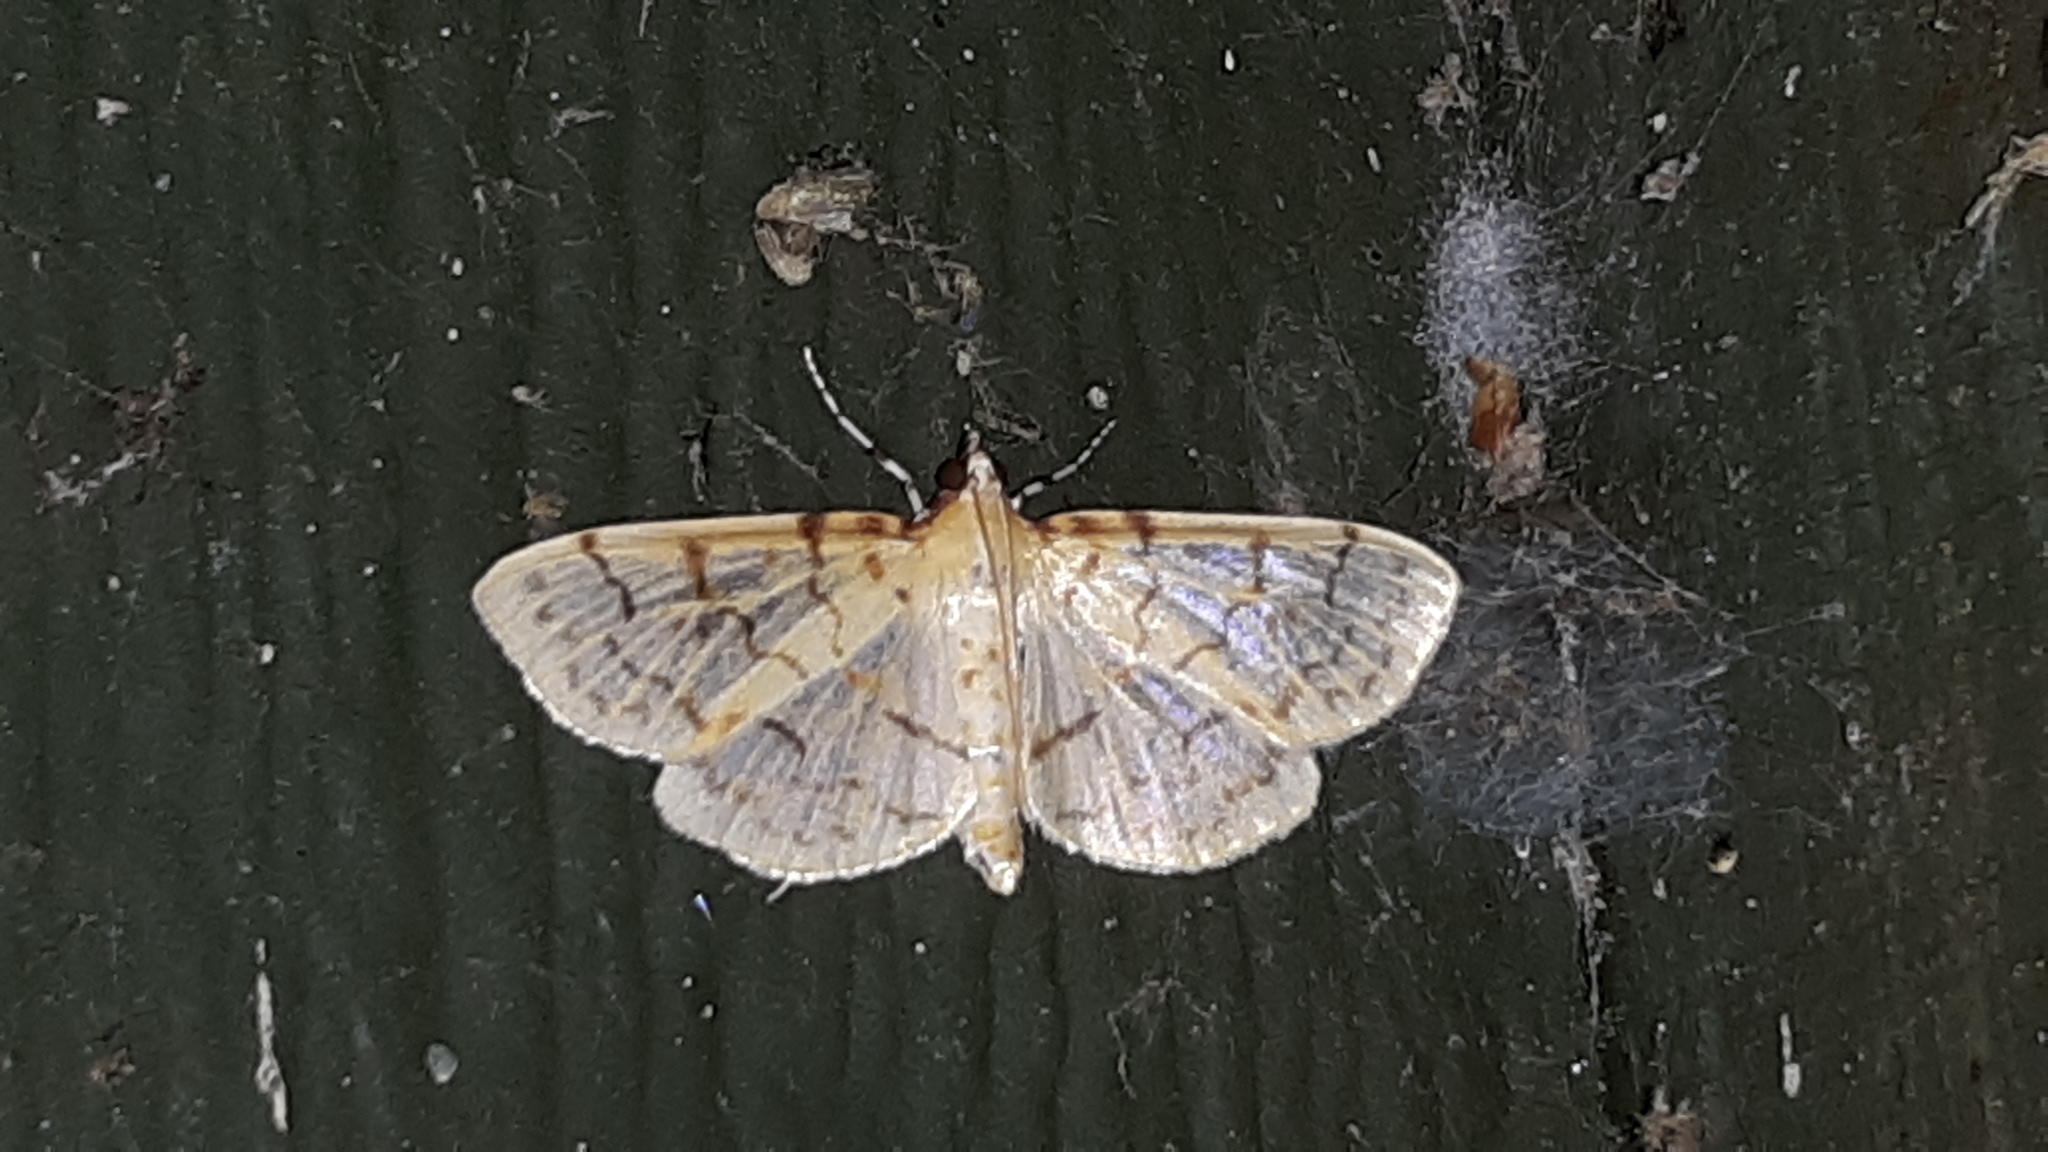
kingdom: Animalia
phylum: Arthropoda
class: Insecta
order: Lepidoptera
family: Crambidae
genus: Polygrammodes
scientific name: Polygrammodes flavidalis
